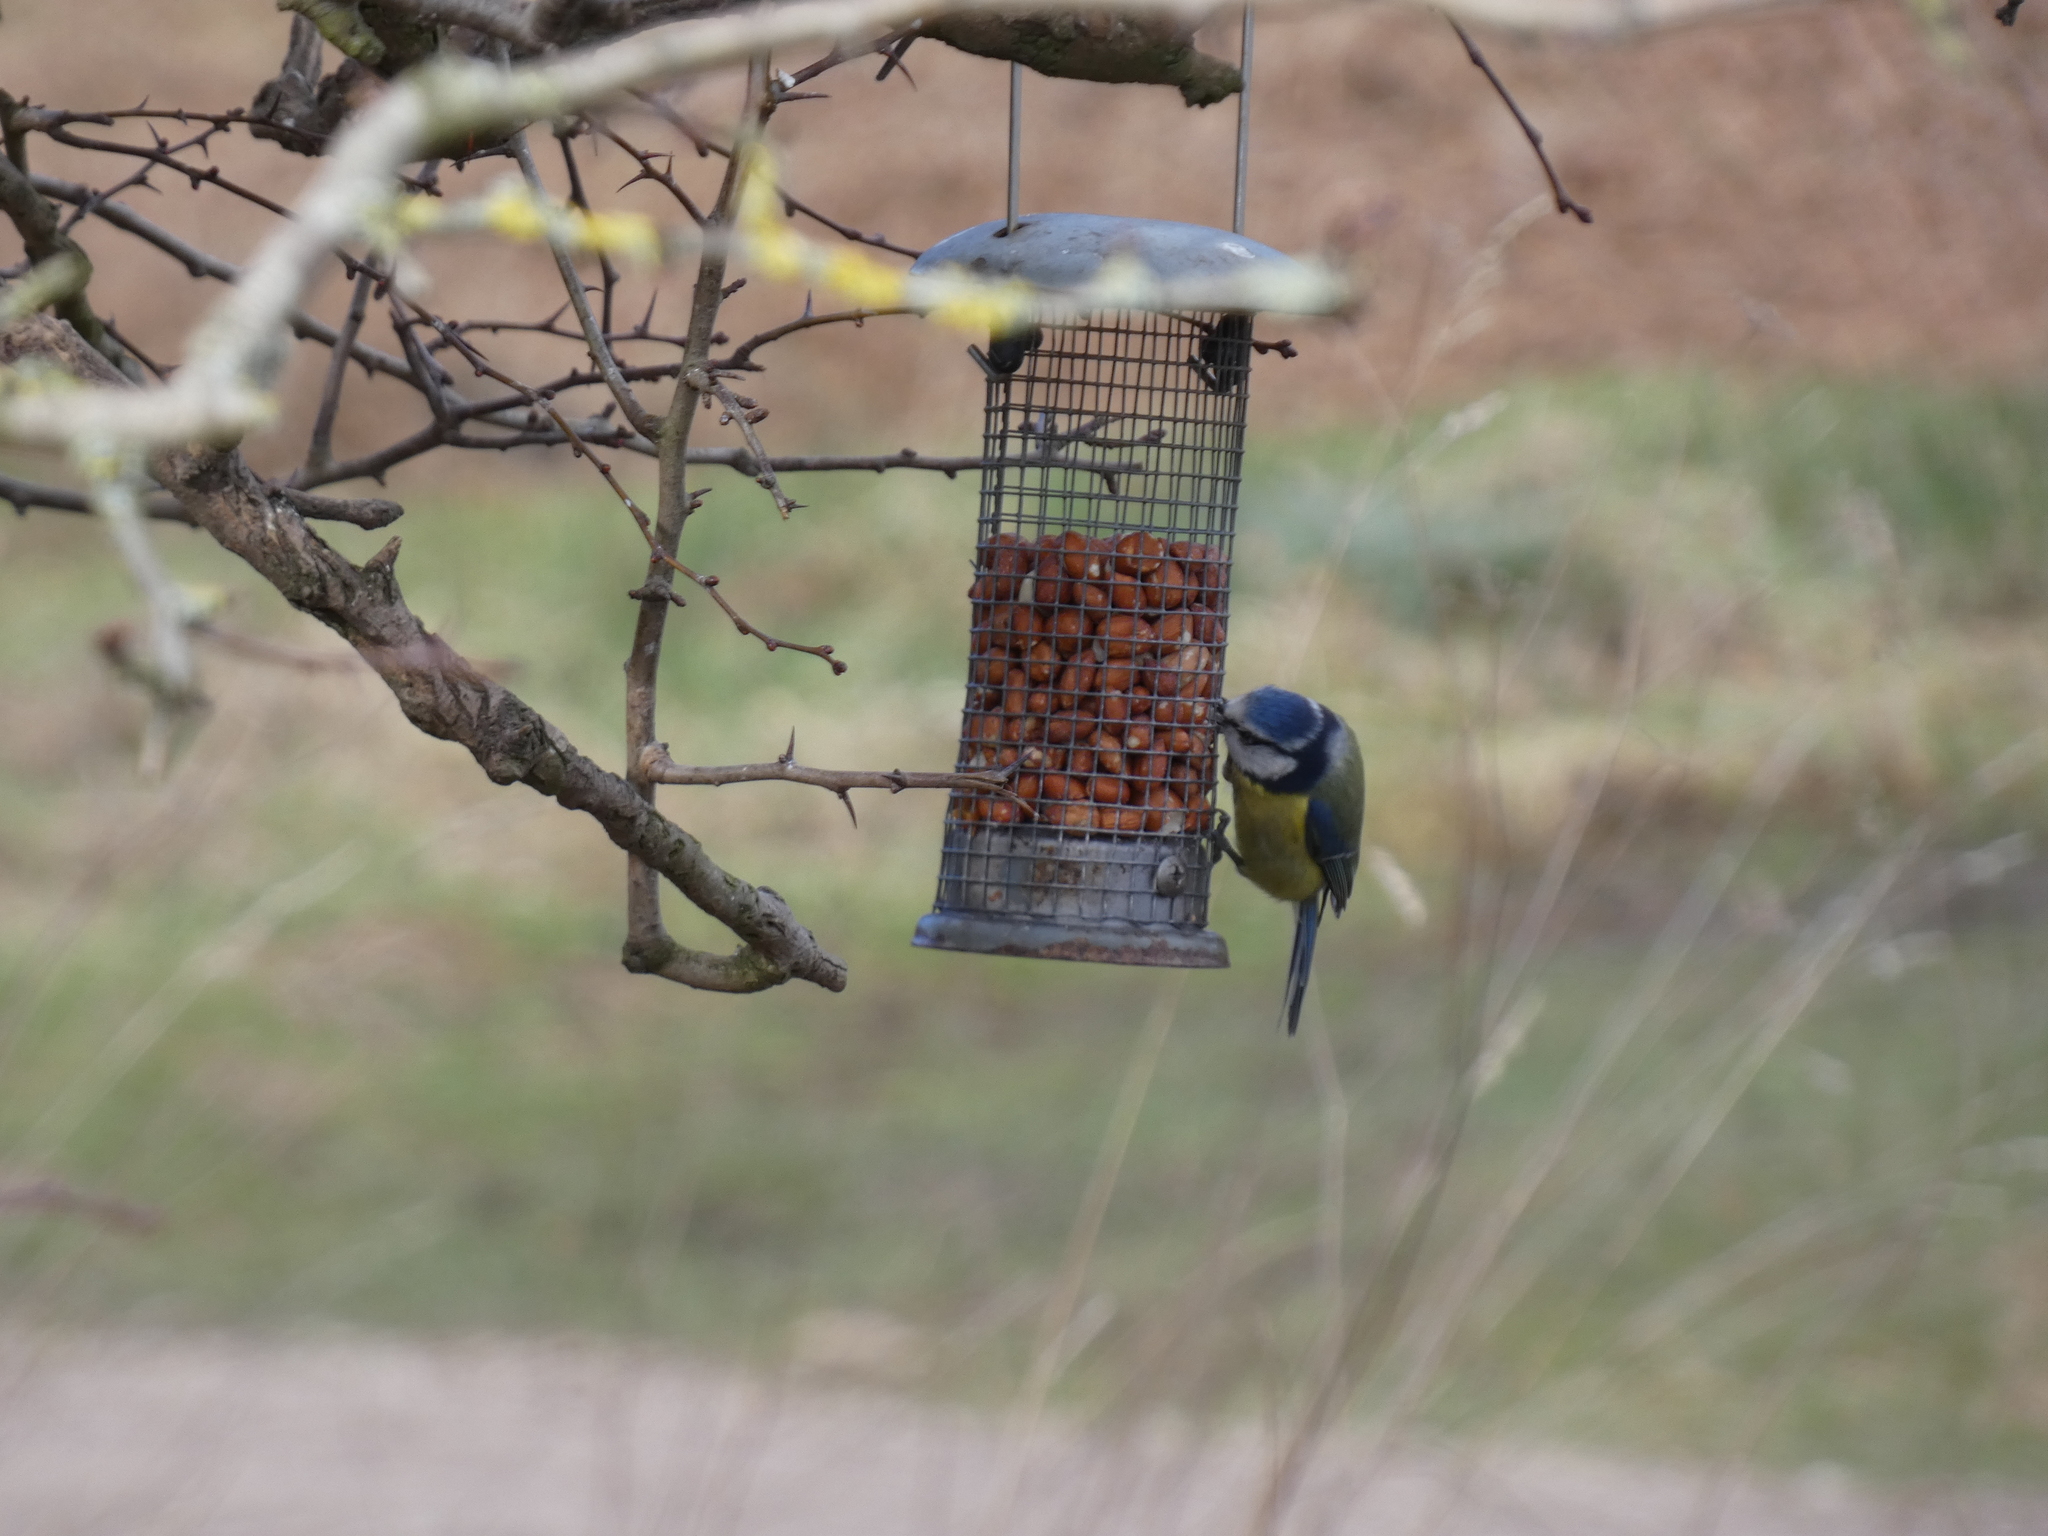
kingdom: Animalia
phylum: Chordata
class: Aves
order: Passeriformes
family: Paridae
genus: Cyanistes
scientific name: Cyanistes caeruleus
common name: Eurasian blue tit
